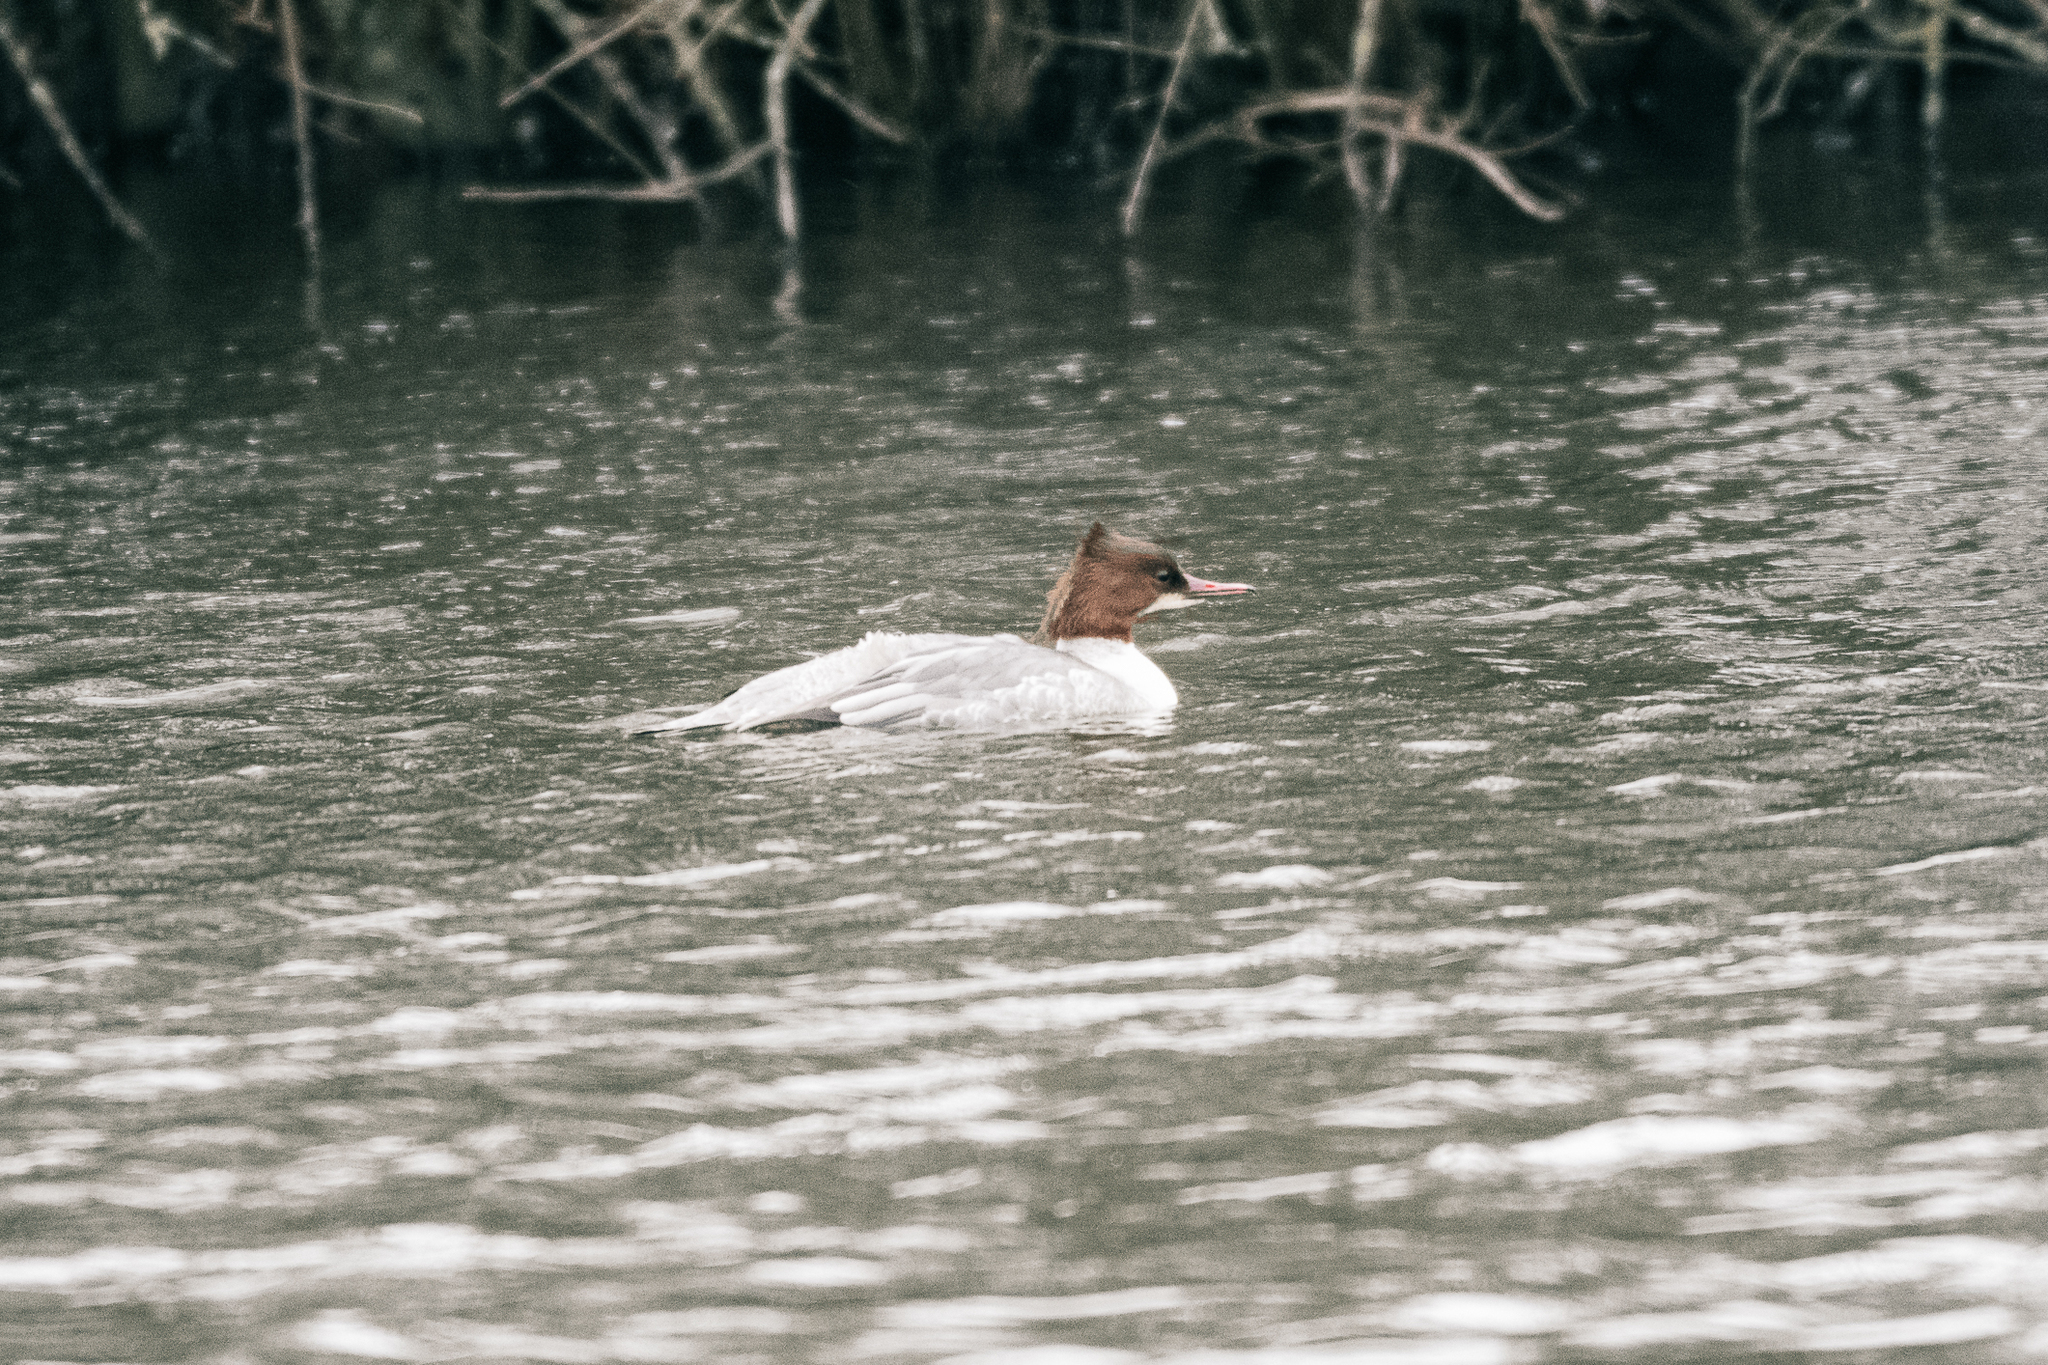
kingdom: Animalia
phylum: Chordata
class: Aves
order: Anseriformes
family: Anatidae
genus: Mergus
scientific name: Mergus merganser
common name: Common merganser
